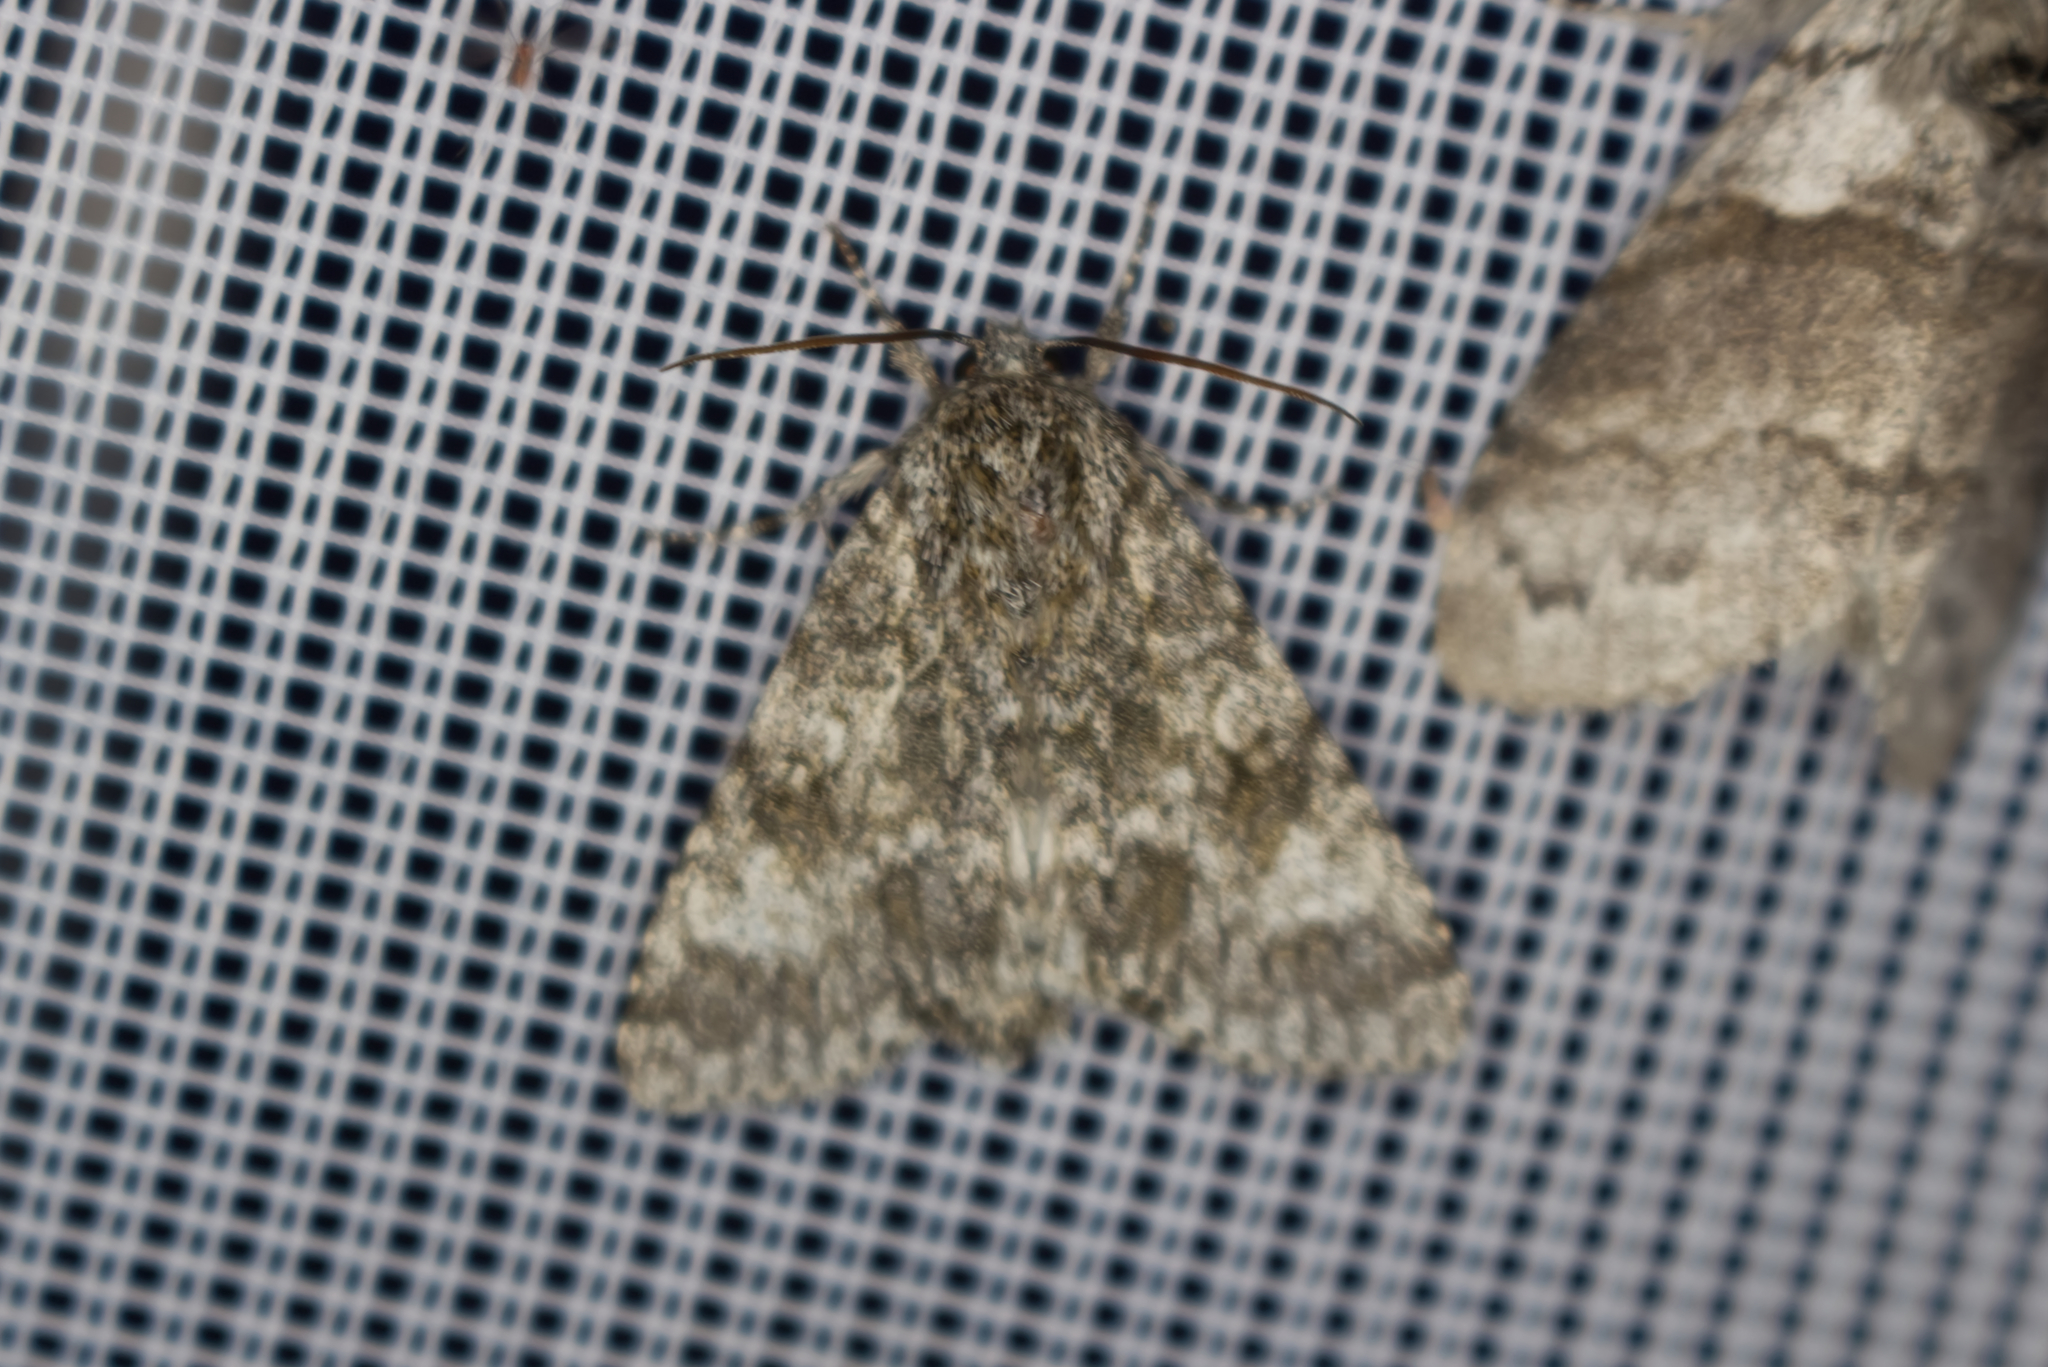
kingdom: Animalia
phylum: Arthropoda
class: Insecta
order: Lepidoptera
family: Noctuidae
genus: Acronicta
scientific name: Acronicta megacephala
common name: Poplar grey
